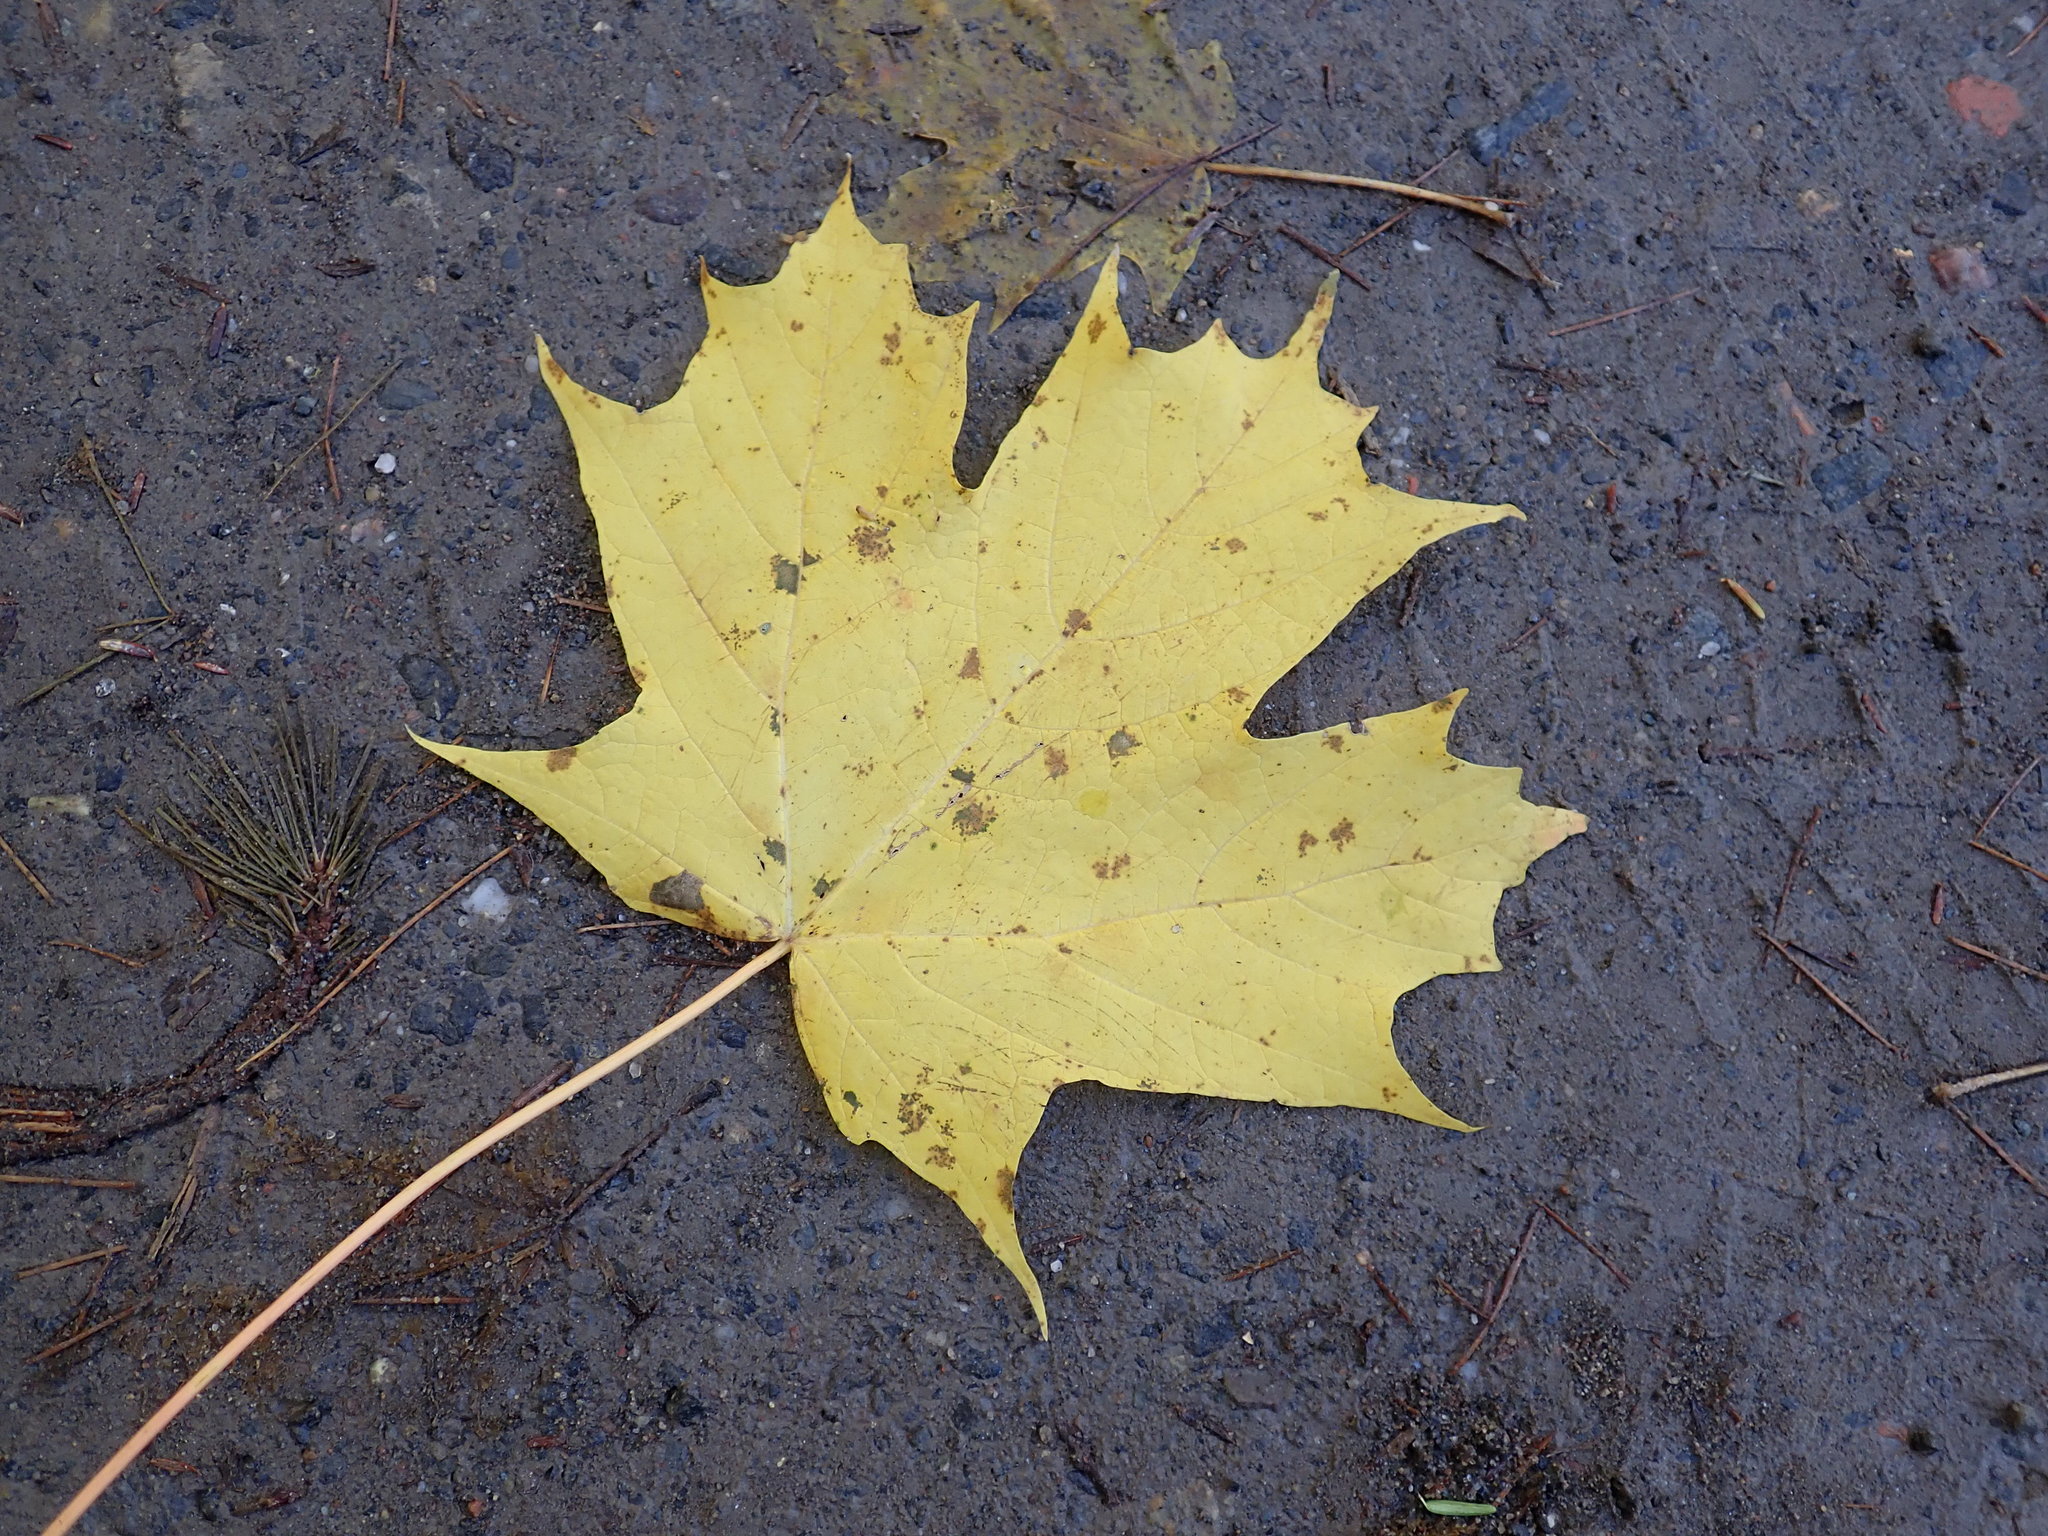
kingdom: Plantae
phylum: Tracheophyta
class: Magnoliopsida
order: Sapindales
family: Sapindaceae
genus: Acer
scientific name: Acer saccharum
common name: Sugar maple
